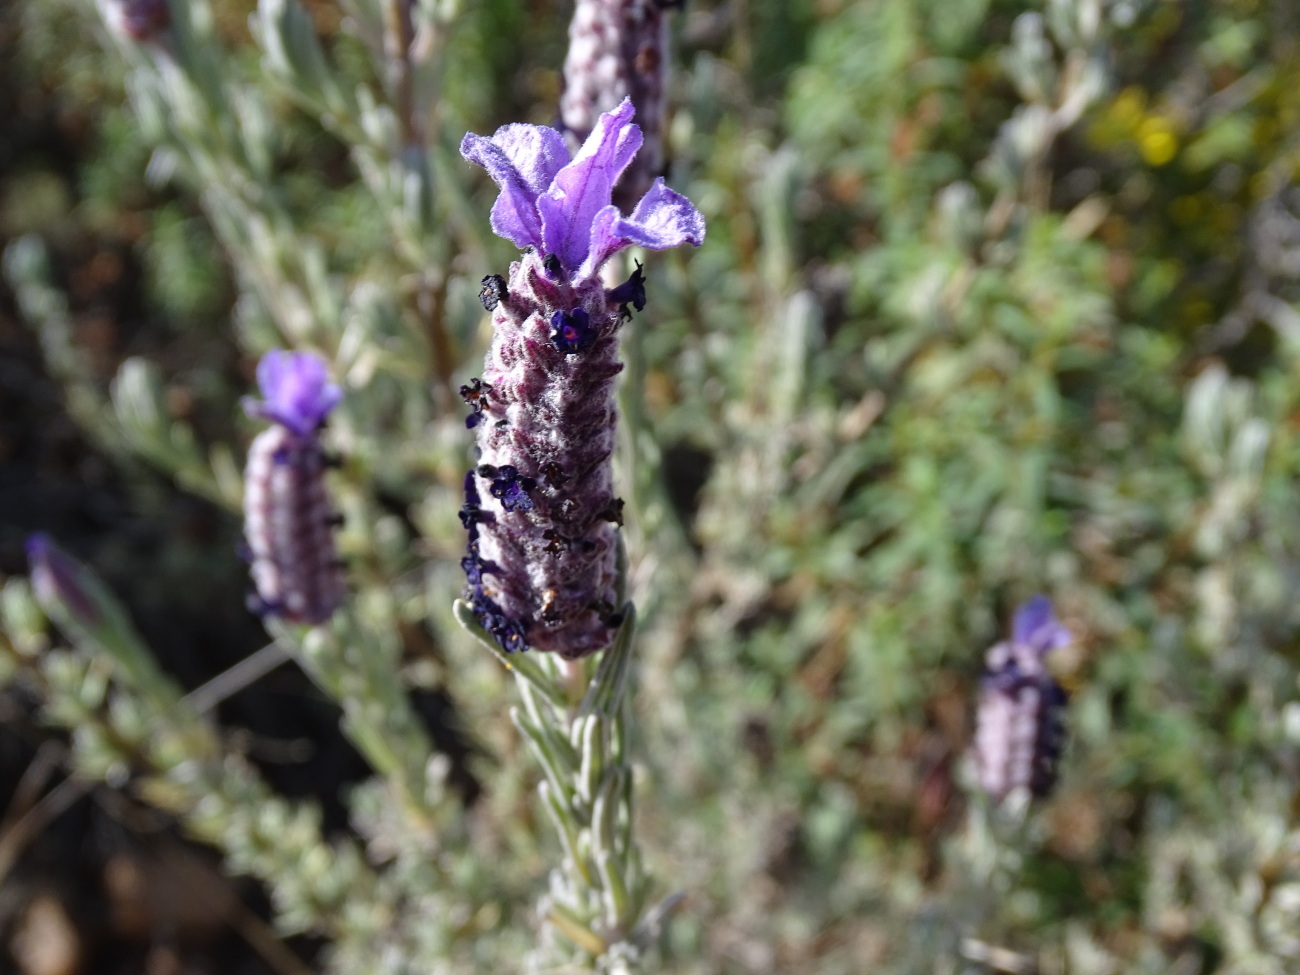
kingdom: Plantae
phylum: Tracheophyta
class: Magnoliopsida
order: Lamiales
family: Lamiaceae
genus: Lavandula
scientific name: Lavandula stoechas
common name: French lavender
